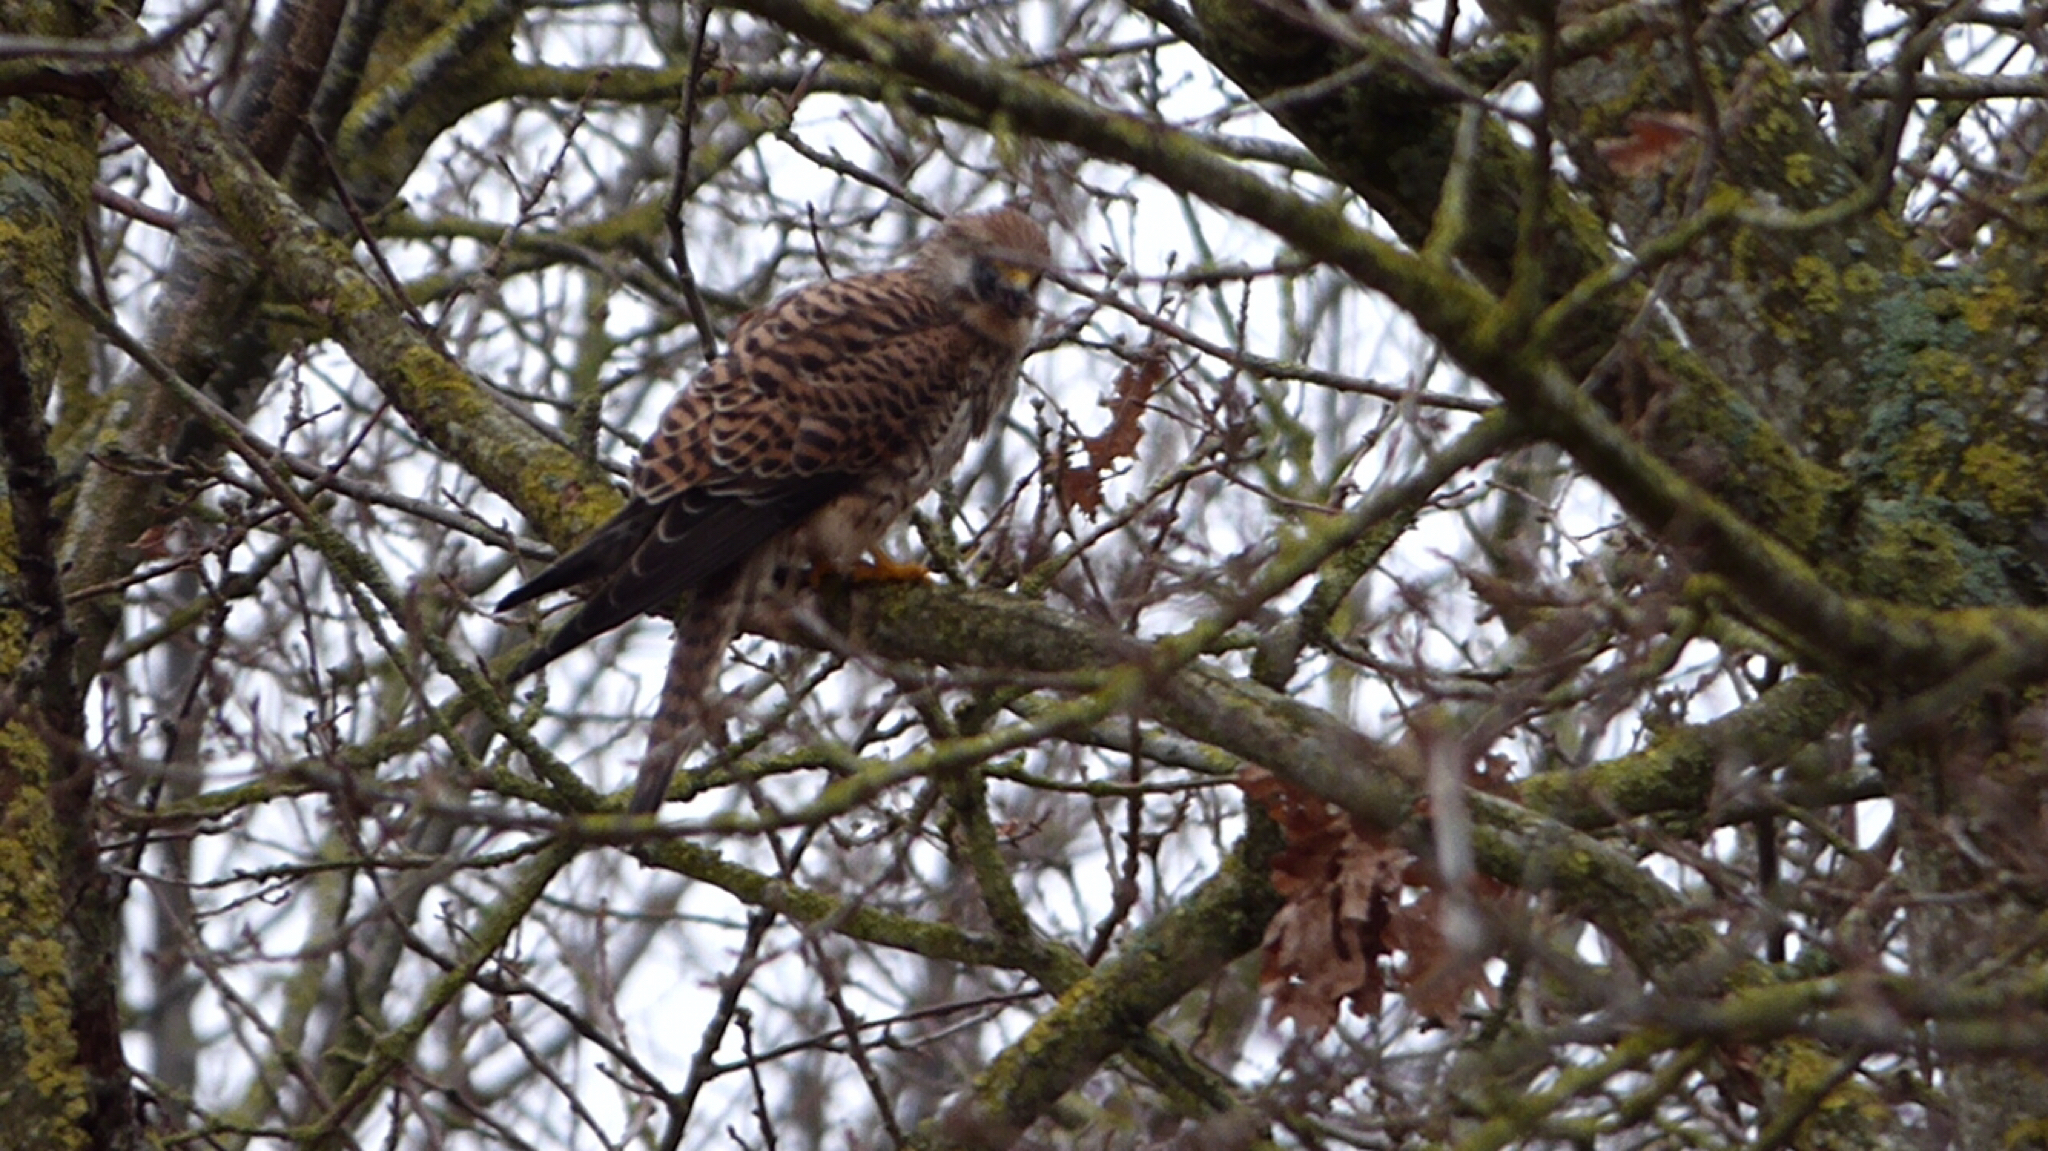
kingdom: Animalia
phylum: Chordata
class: Aves
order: Falconiformes
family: Falconidae
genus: Falco
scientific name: Falco tinnunculus
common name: Common kestrel
